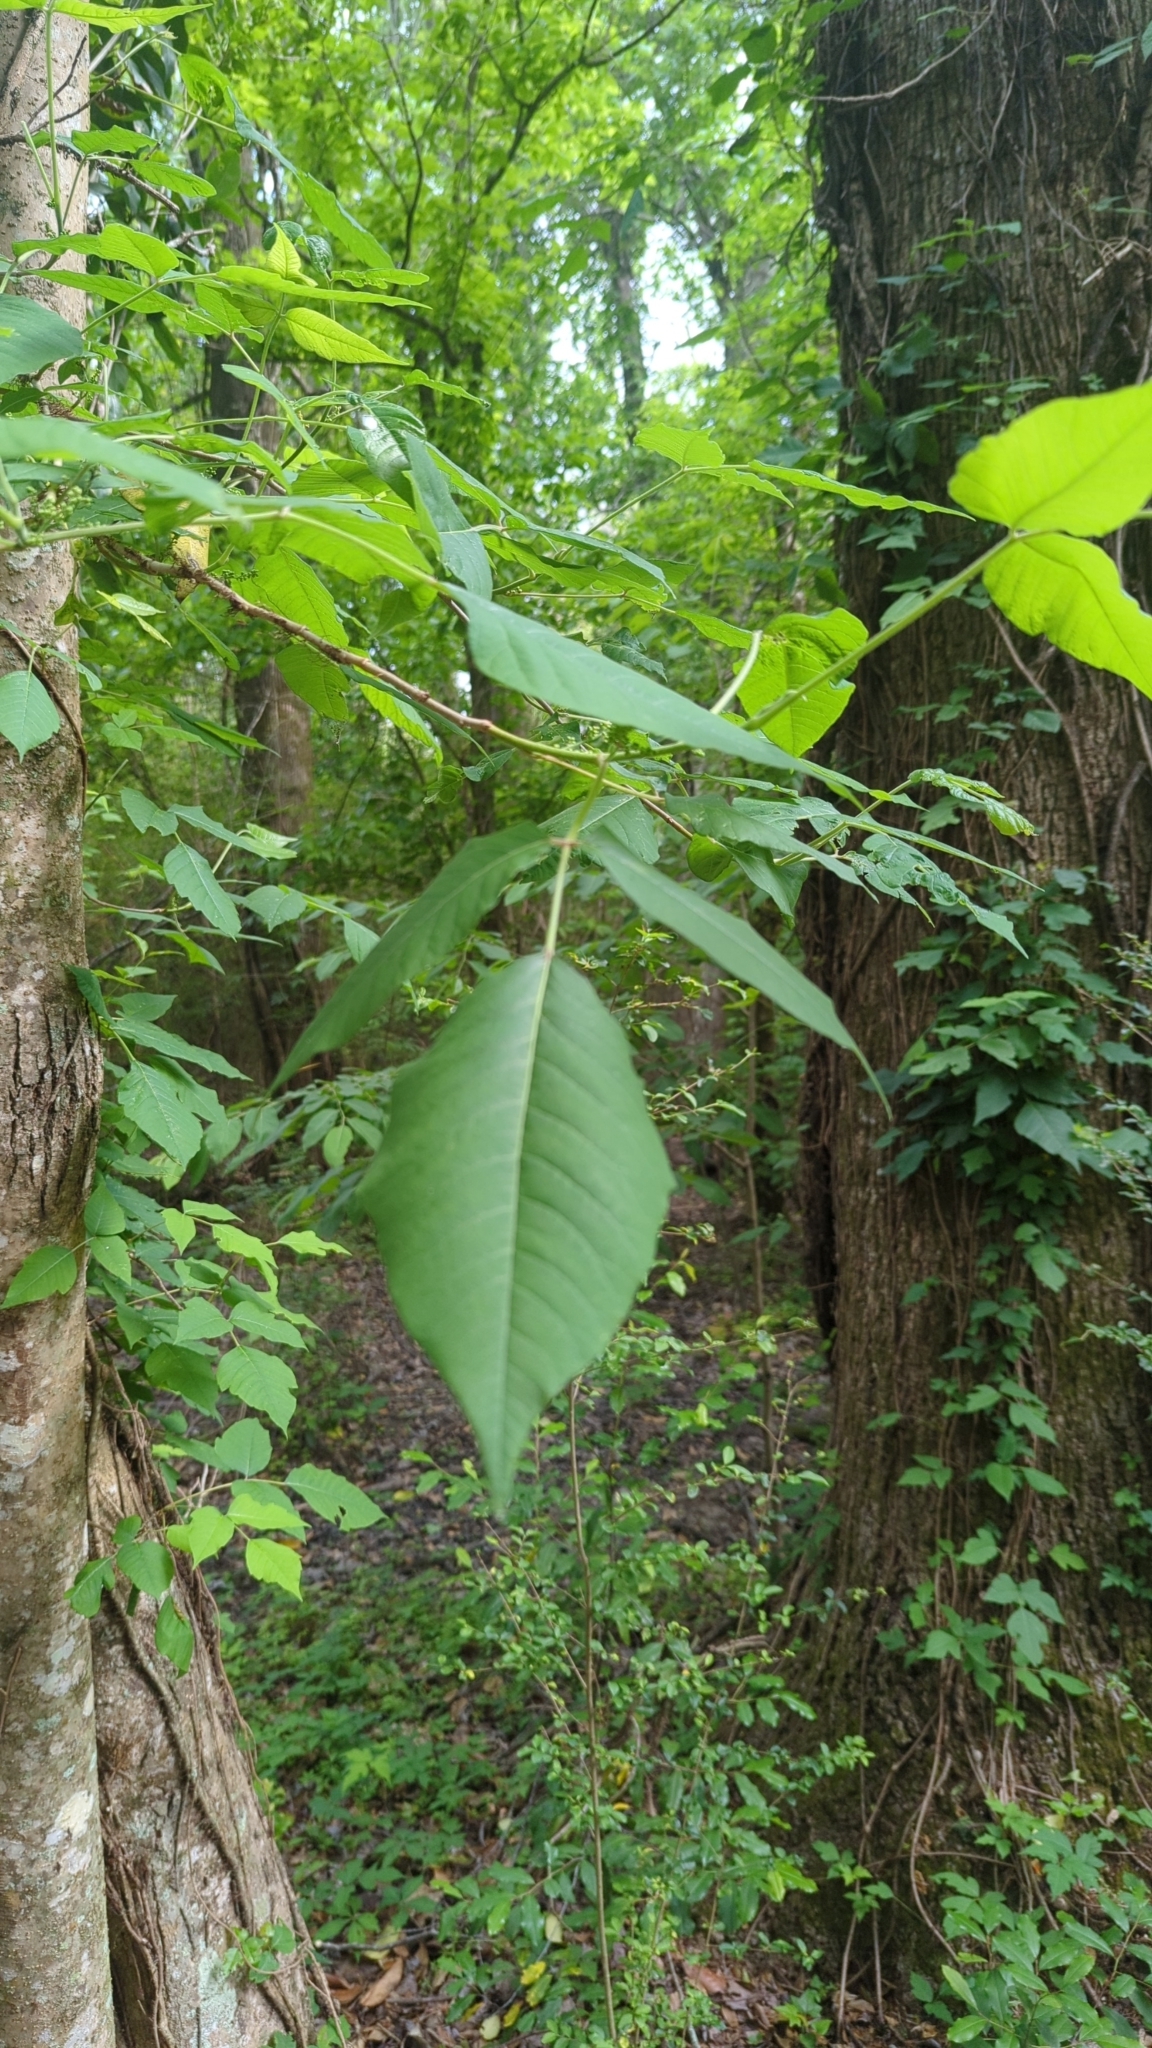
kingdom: Plantae
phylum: Tracheophyta
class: Magnoliopsida
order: Sapindales
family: Anacardiaceae
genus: Toxicodendron
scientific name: Toxicodendron radicans
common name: Poison ivy
